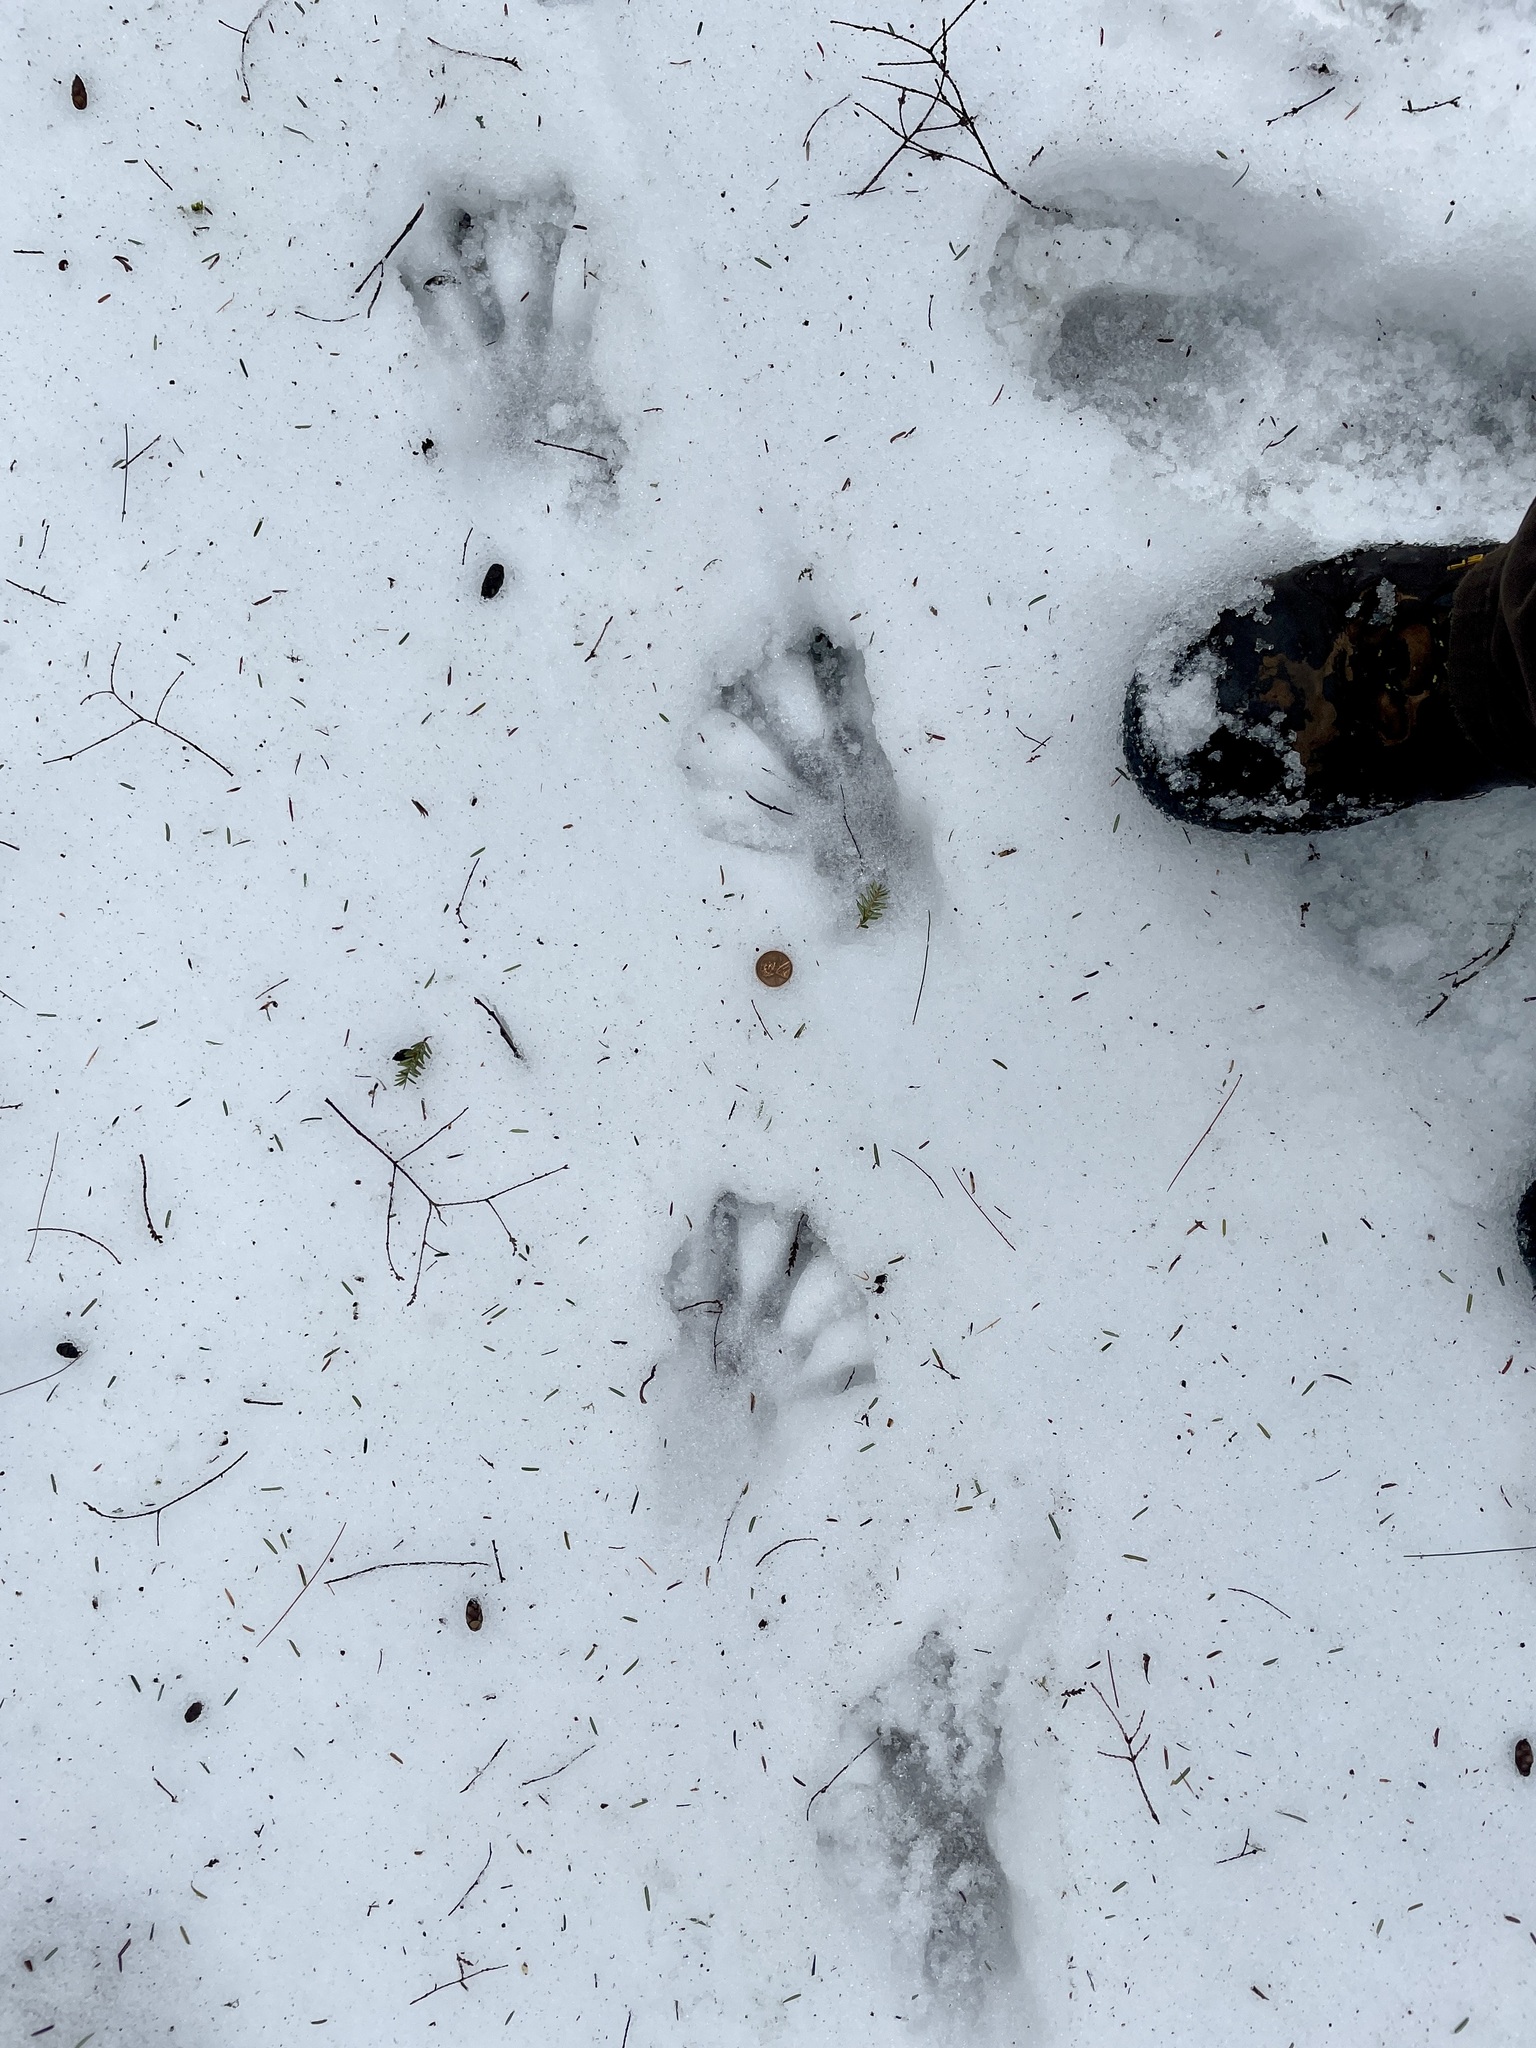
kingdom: Animalia
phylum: Chordata
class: Mammalia
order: Rodentia
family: Castoridae
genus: Castor
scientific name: Castor canadensis
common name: American beaver
